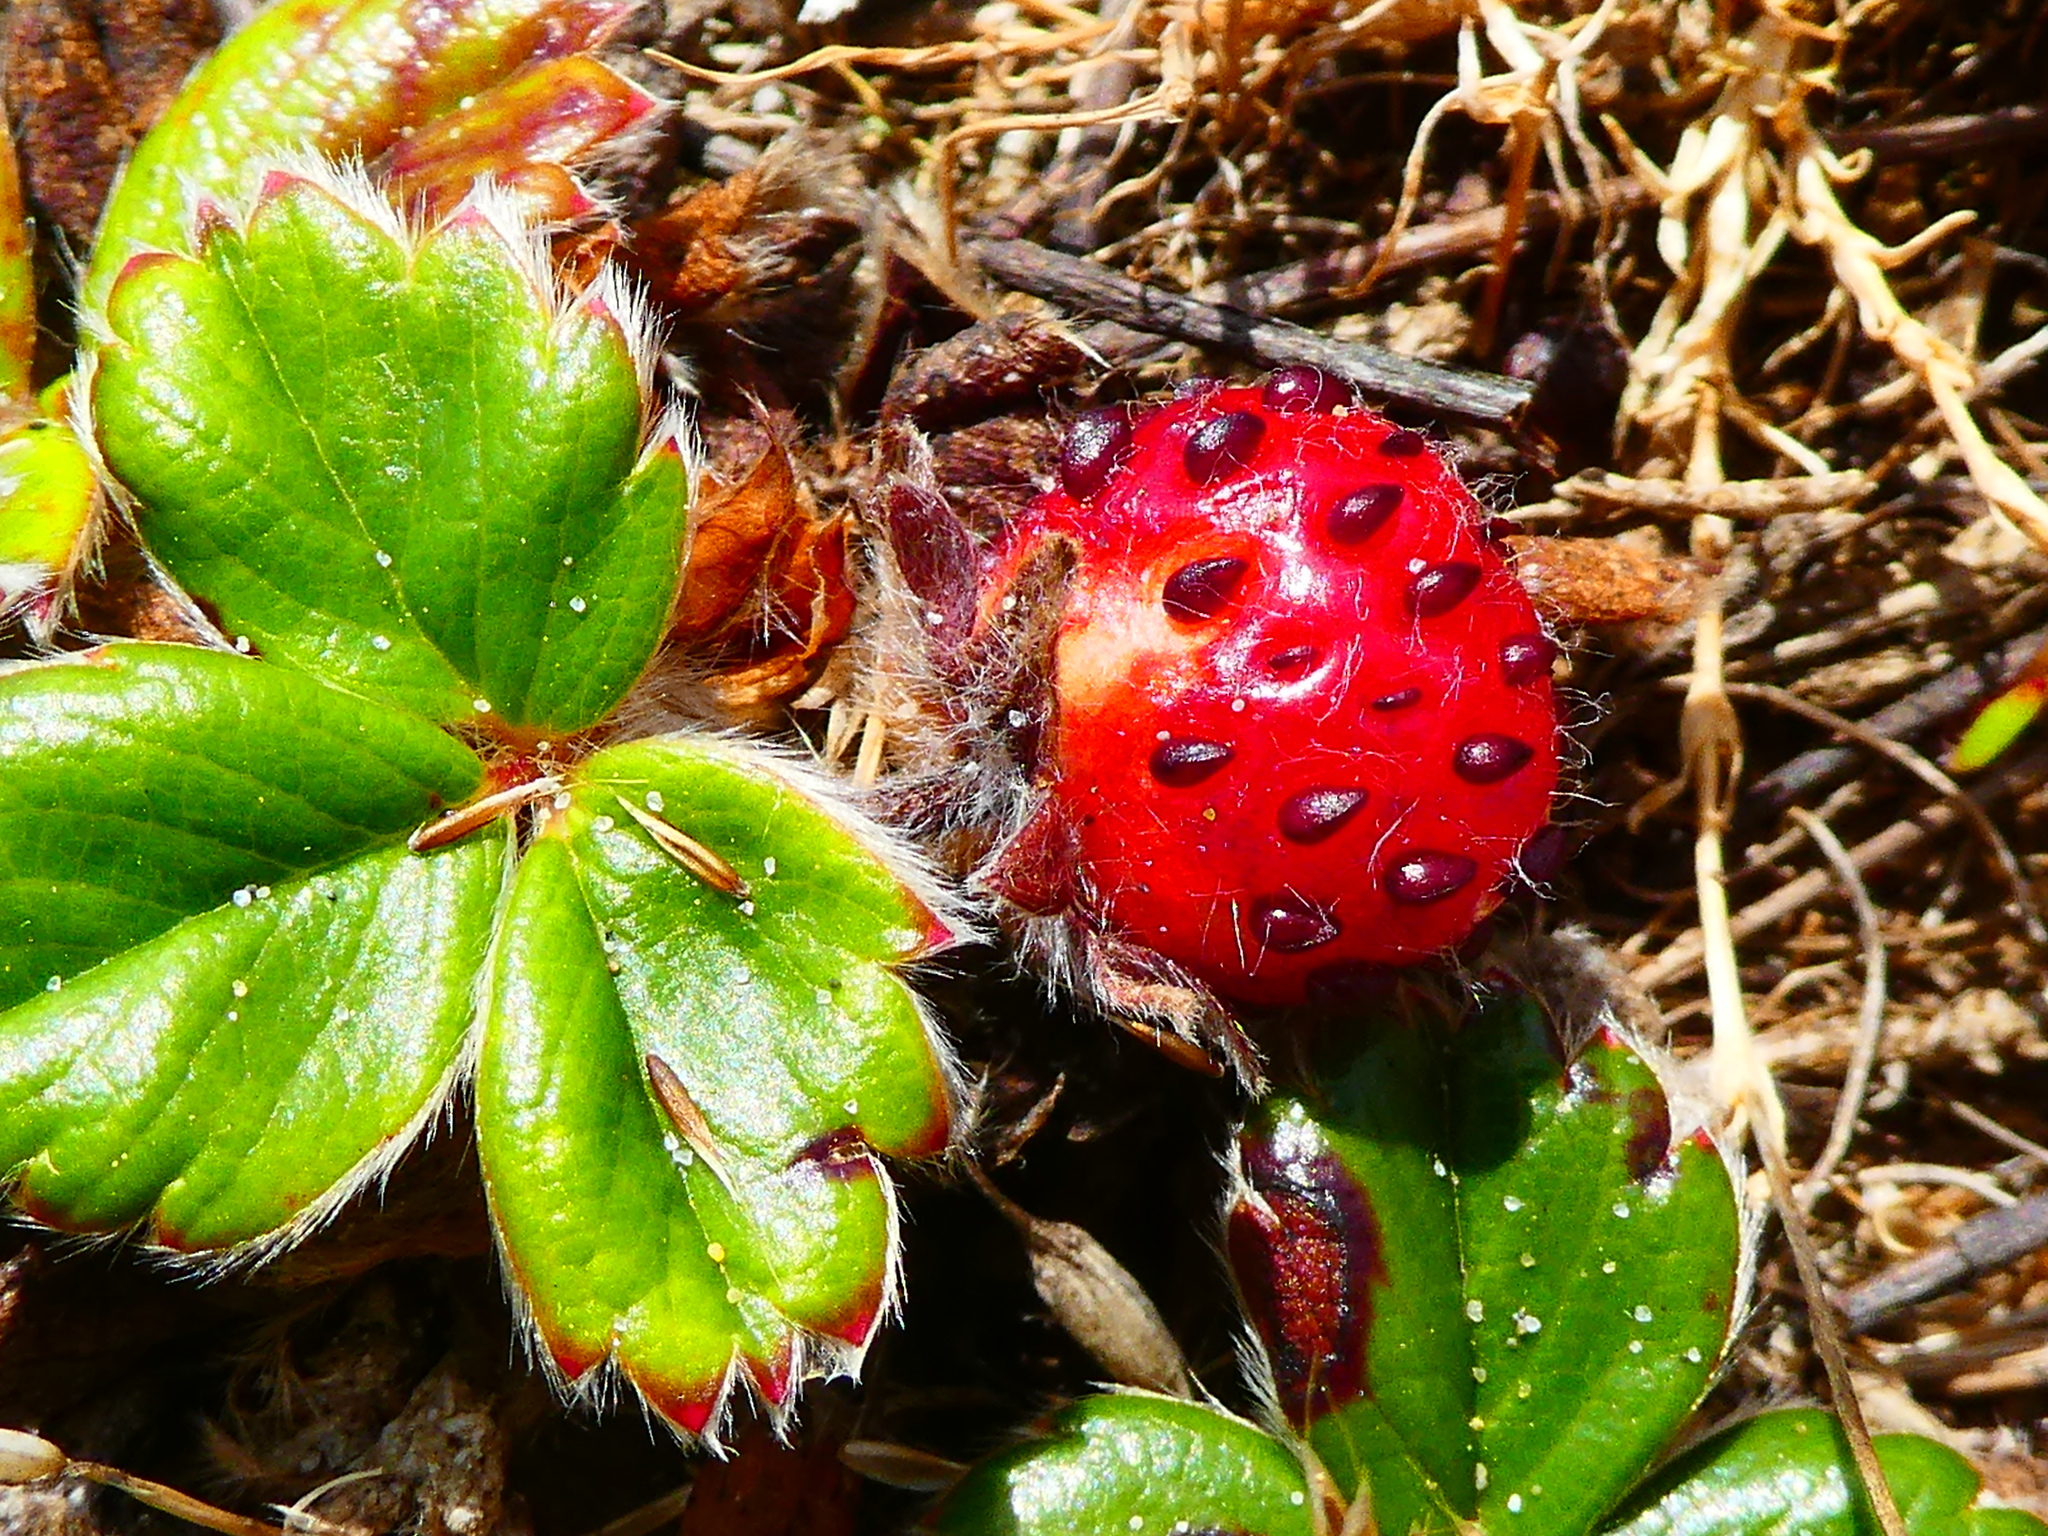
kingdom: Plantae
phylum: Tracheophyta
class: Magnoliopsida
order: Rosales
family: Rosaceae
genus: Fragaria
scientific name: Fragaria chiloensis
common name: Beach strawberry
